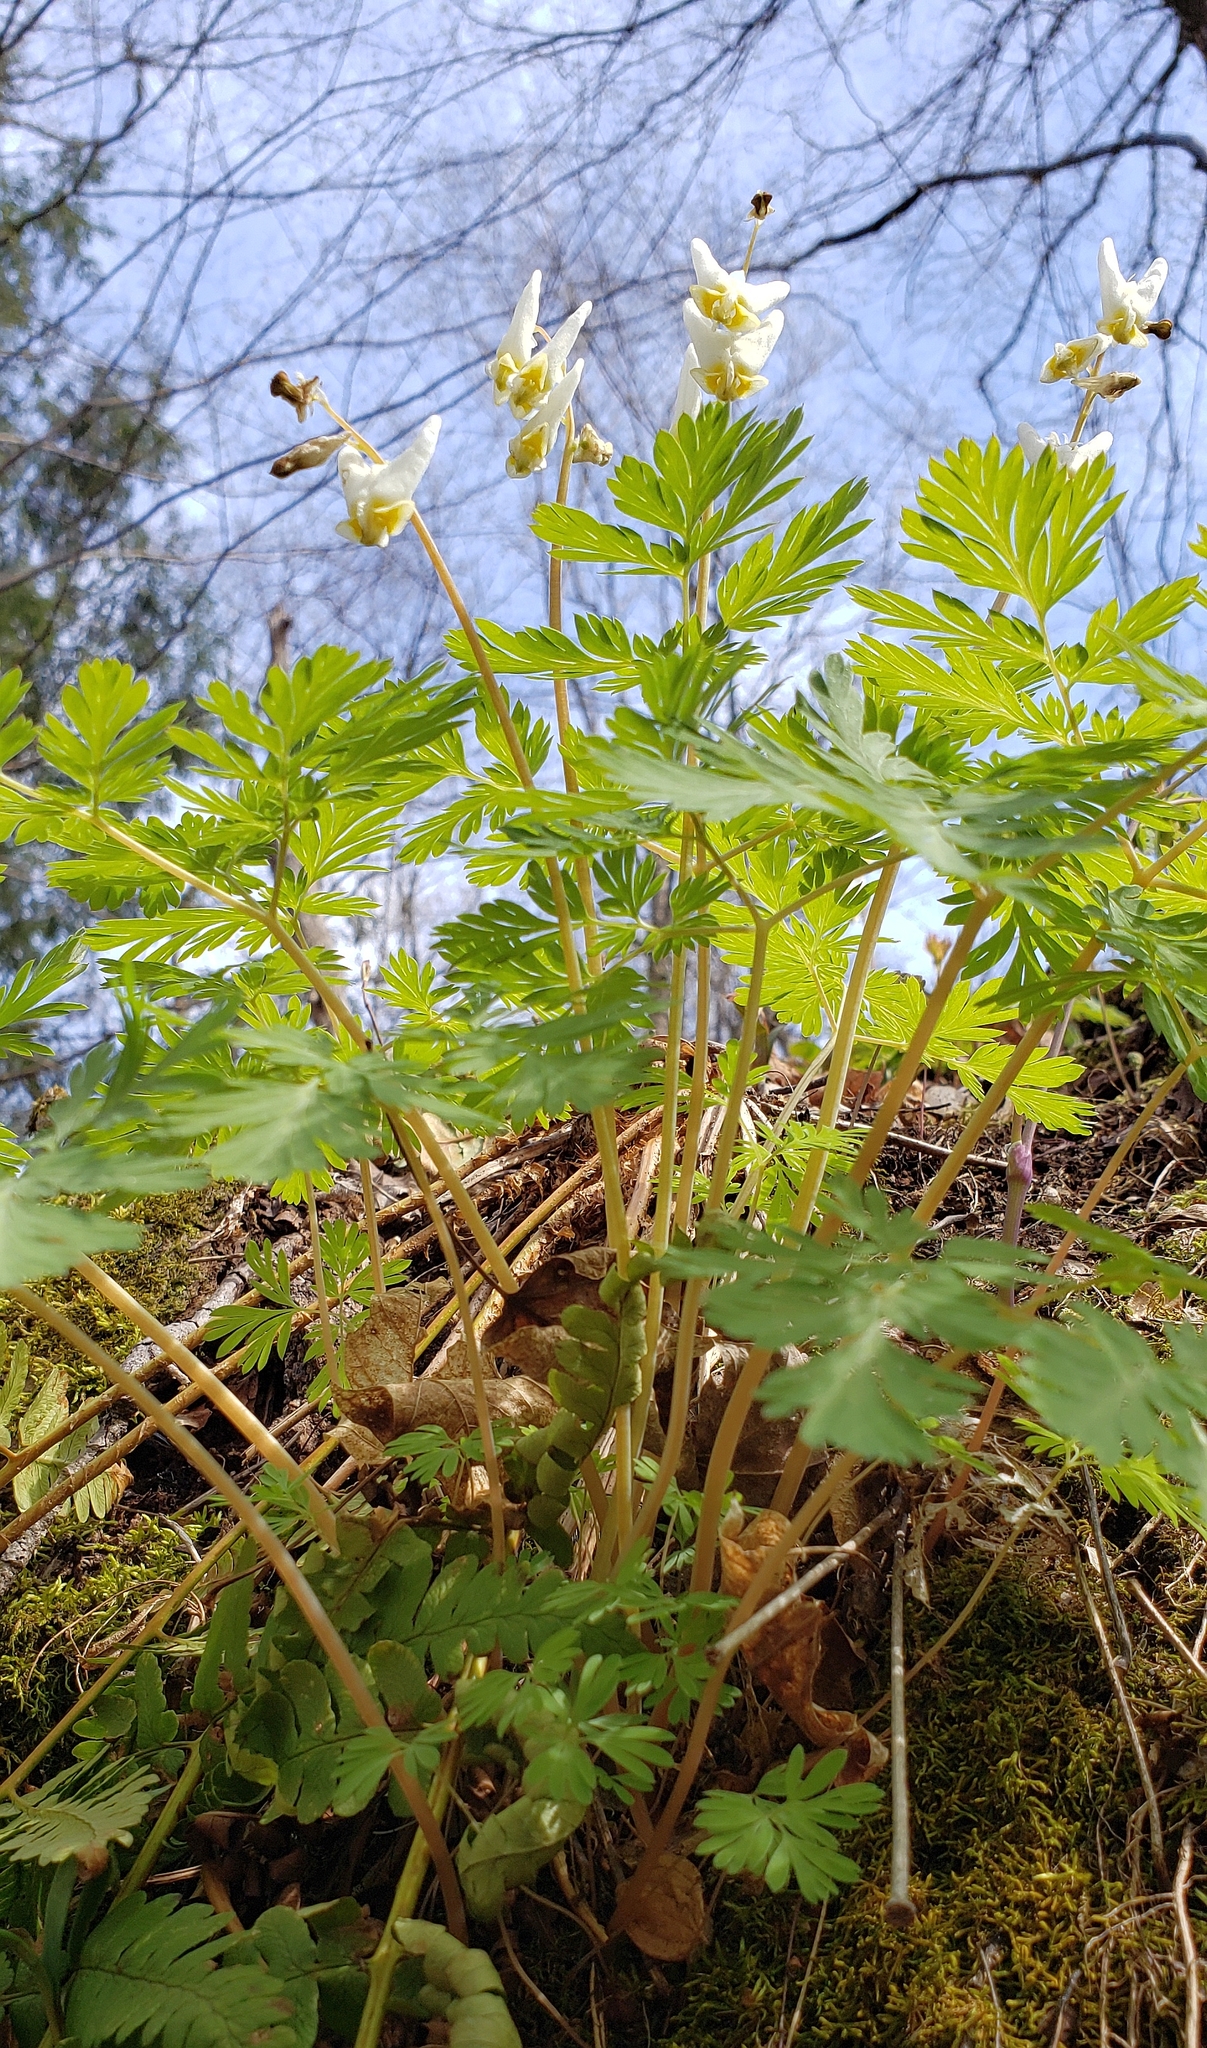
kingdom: Plantae
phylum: Tracheophyta
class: Magnoliopsida
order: Ranunculales
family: Papaveraceae
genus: Dicentra
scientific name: Dicentra cucullaria
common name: Dutchman's breeches
